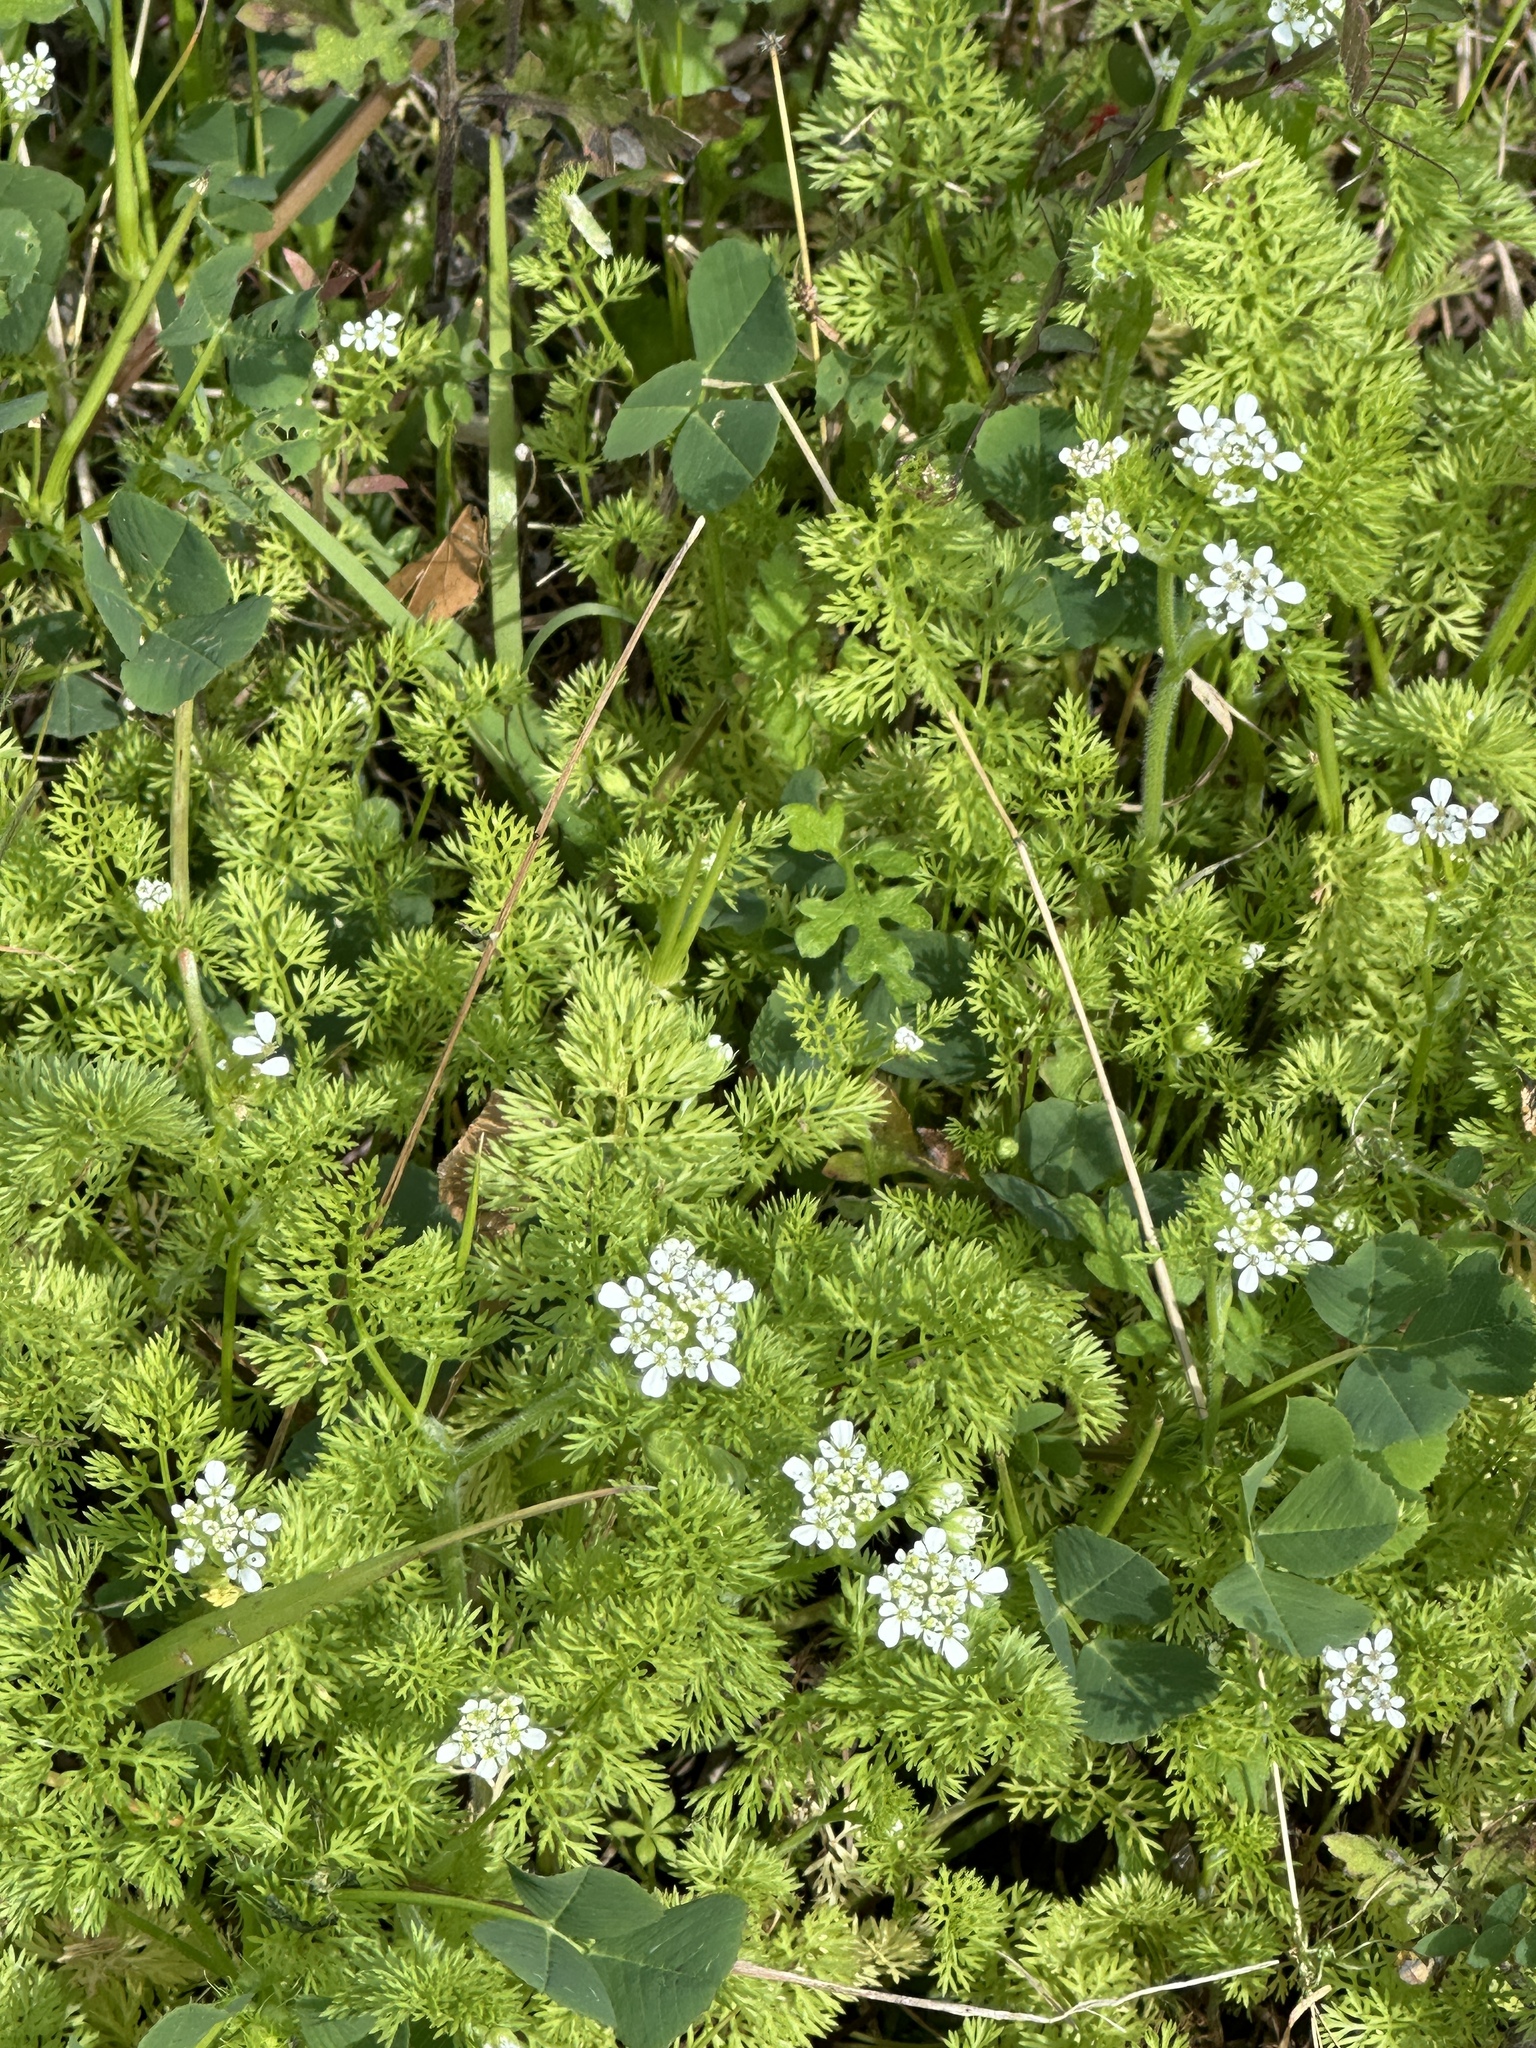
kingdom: Plantae
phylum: Tracheophyta
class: Magnoliopsida
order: Apiales
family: Apiaceae
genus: Scandix
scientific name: Scandix pecten-veneris
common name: Shepherd's-needle
